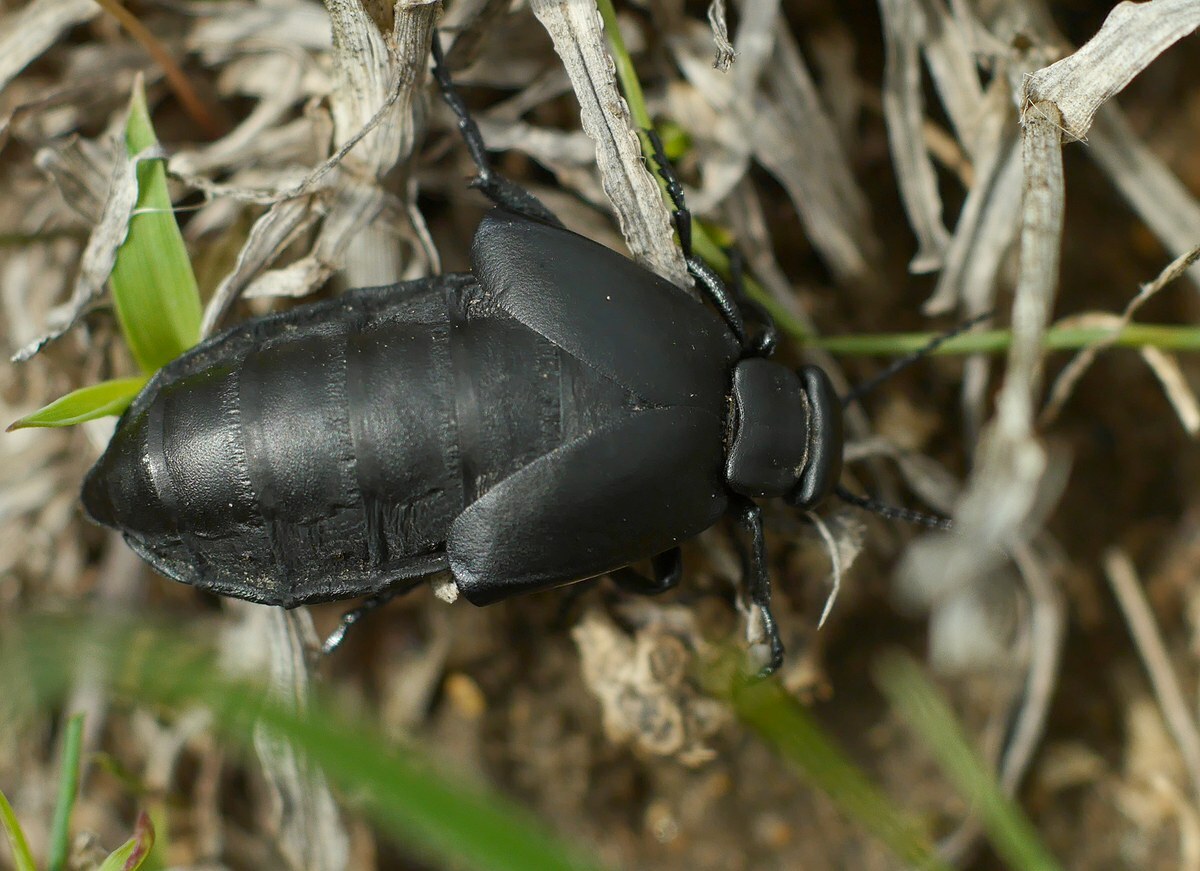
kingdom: Animalia
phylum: Arthropoda
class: Insecta
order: Coleoptera
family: Meloidae
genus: Meloe
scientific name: Meloe uralensis
